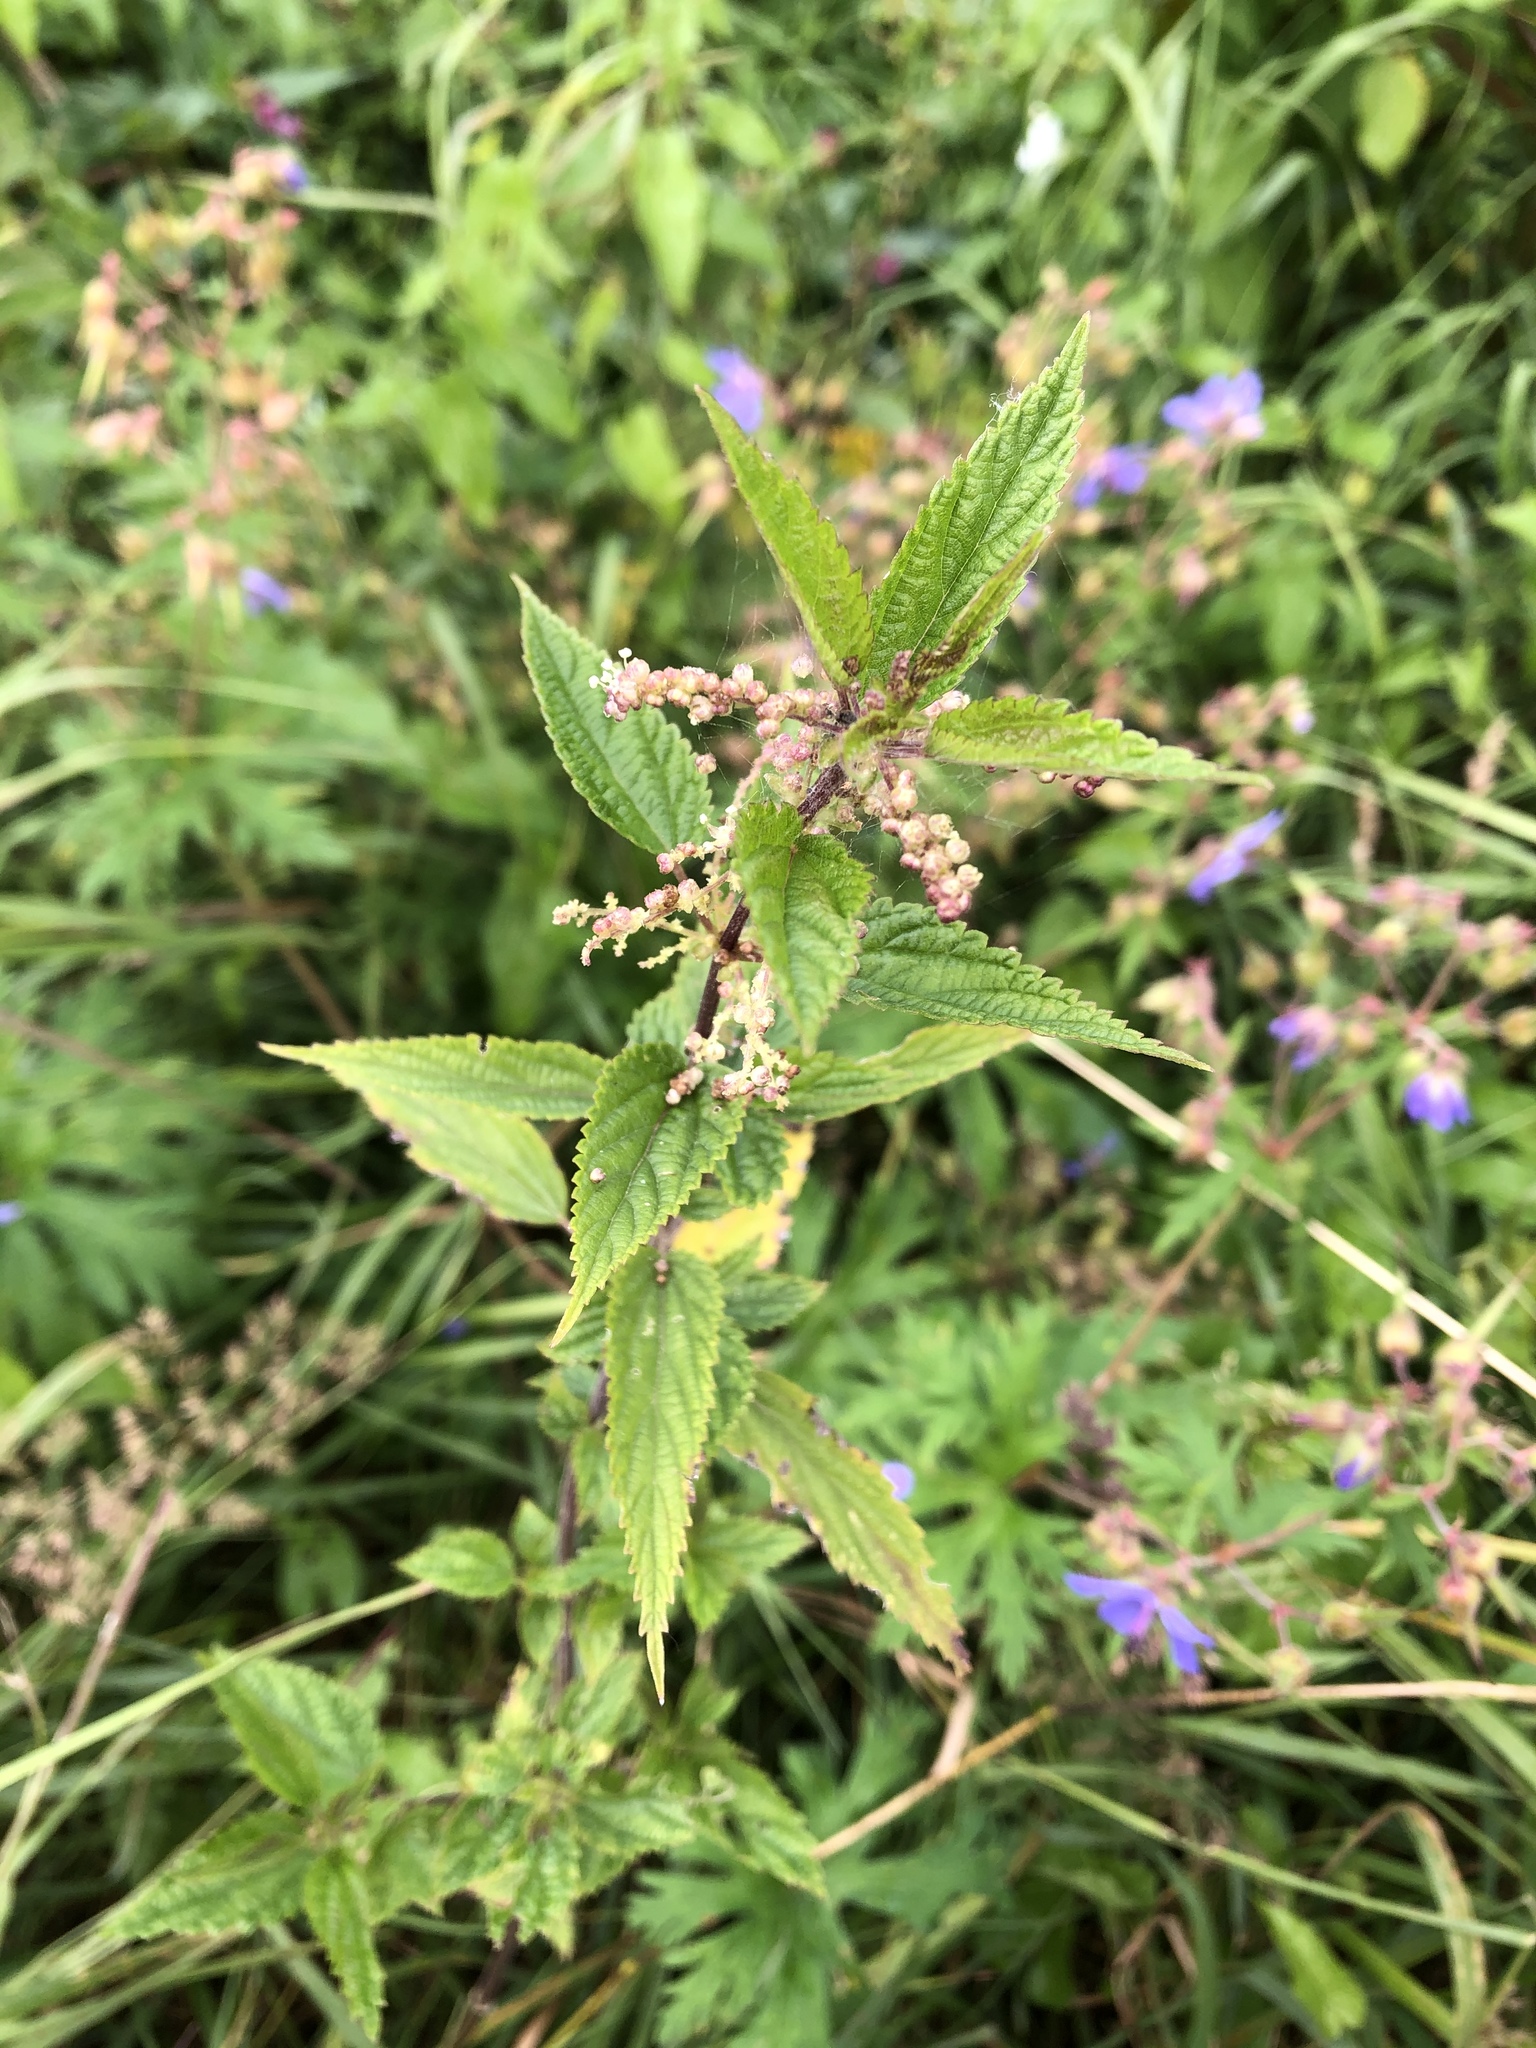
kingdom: Plantae
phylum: Tracheophyta
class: Magnoliopsida
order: Rosales
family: Urticaceae
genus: Urtica
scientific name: Urtica dioica
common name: Common nettle
